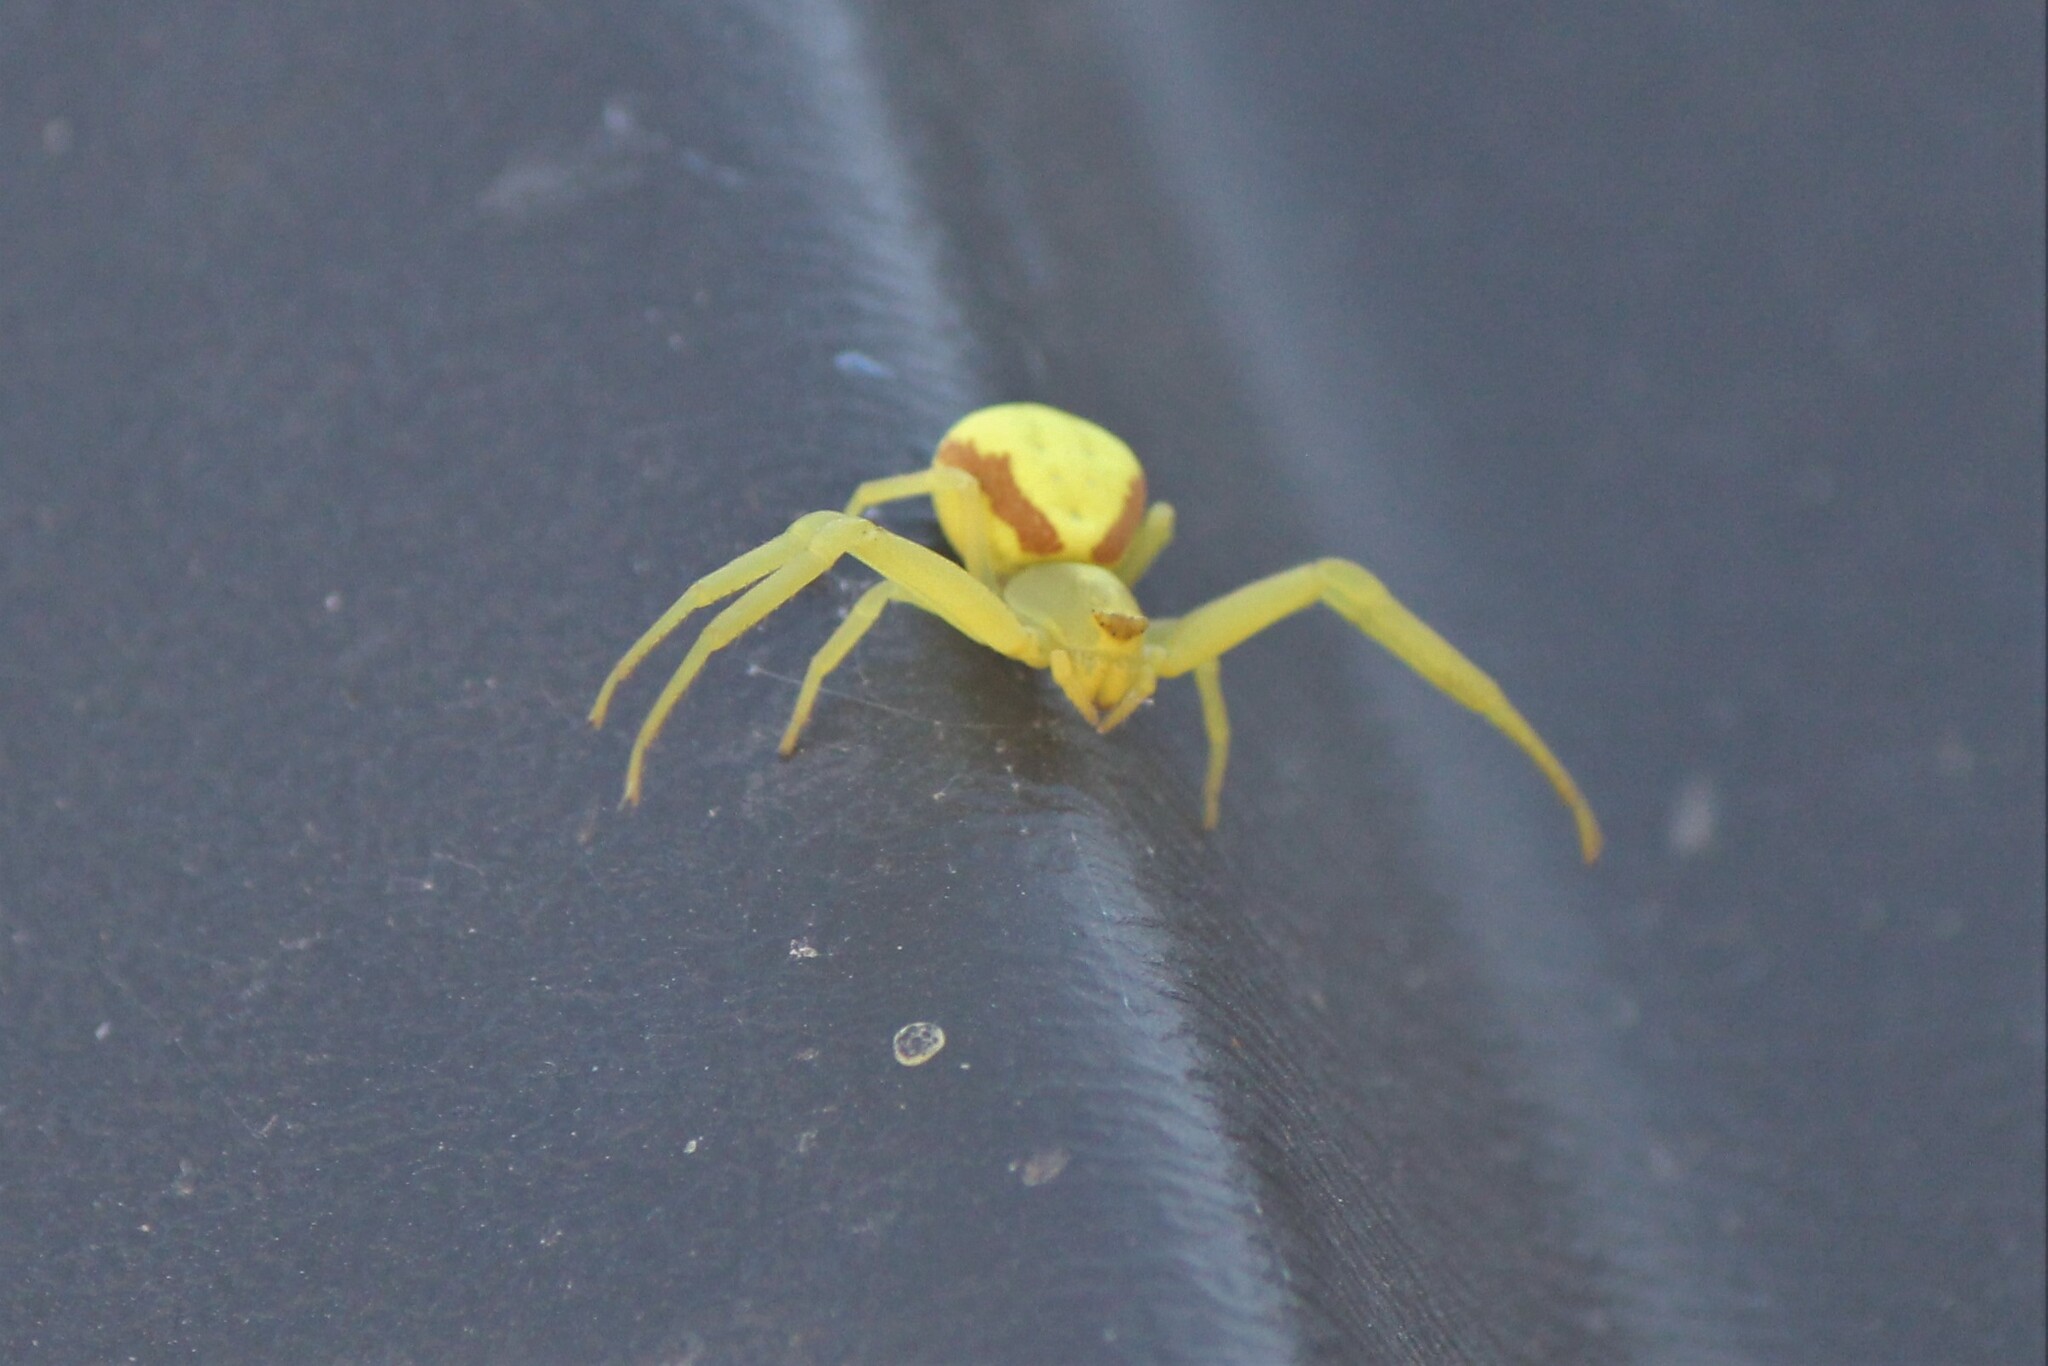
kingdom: Animalia
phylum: Arthropoda
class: Arachnida
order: Araneae
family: Thomisidae
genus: Misumena
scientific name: Misumena vatia
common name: Goldenrod crab spider
